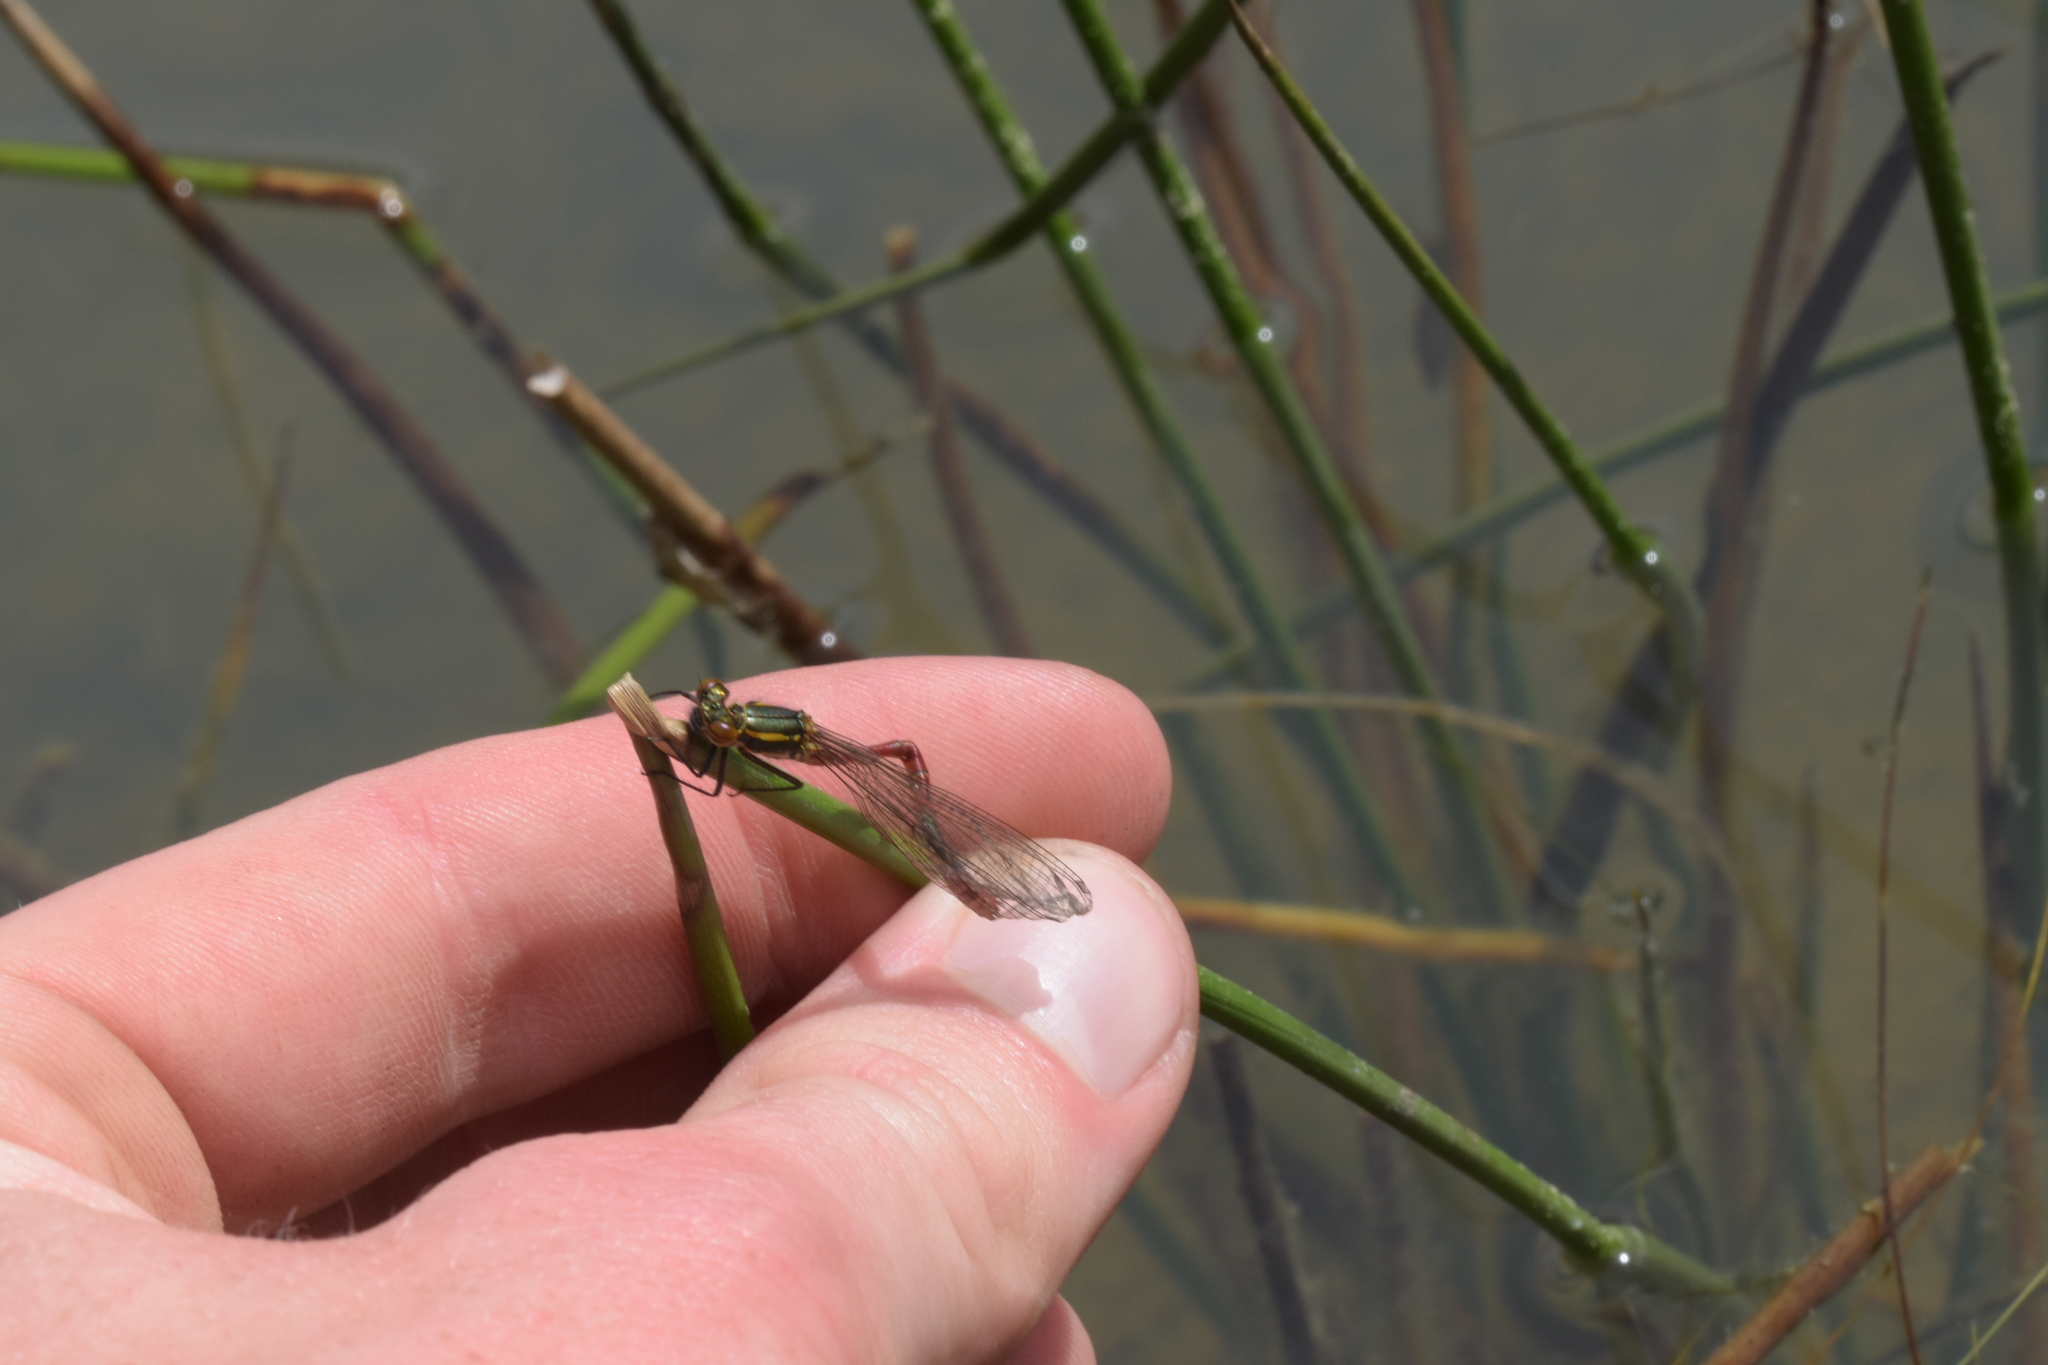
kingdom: Animalia
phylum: Arthropoda
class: Insecta
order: Odonata
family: Coenagrionidae
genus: Pyrrhosoma
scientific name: Pyrrhosoma nymphula
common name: Large red damsel
